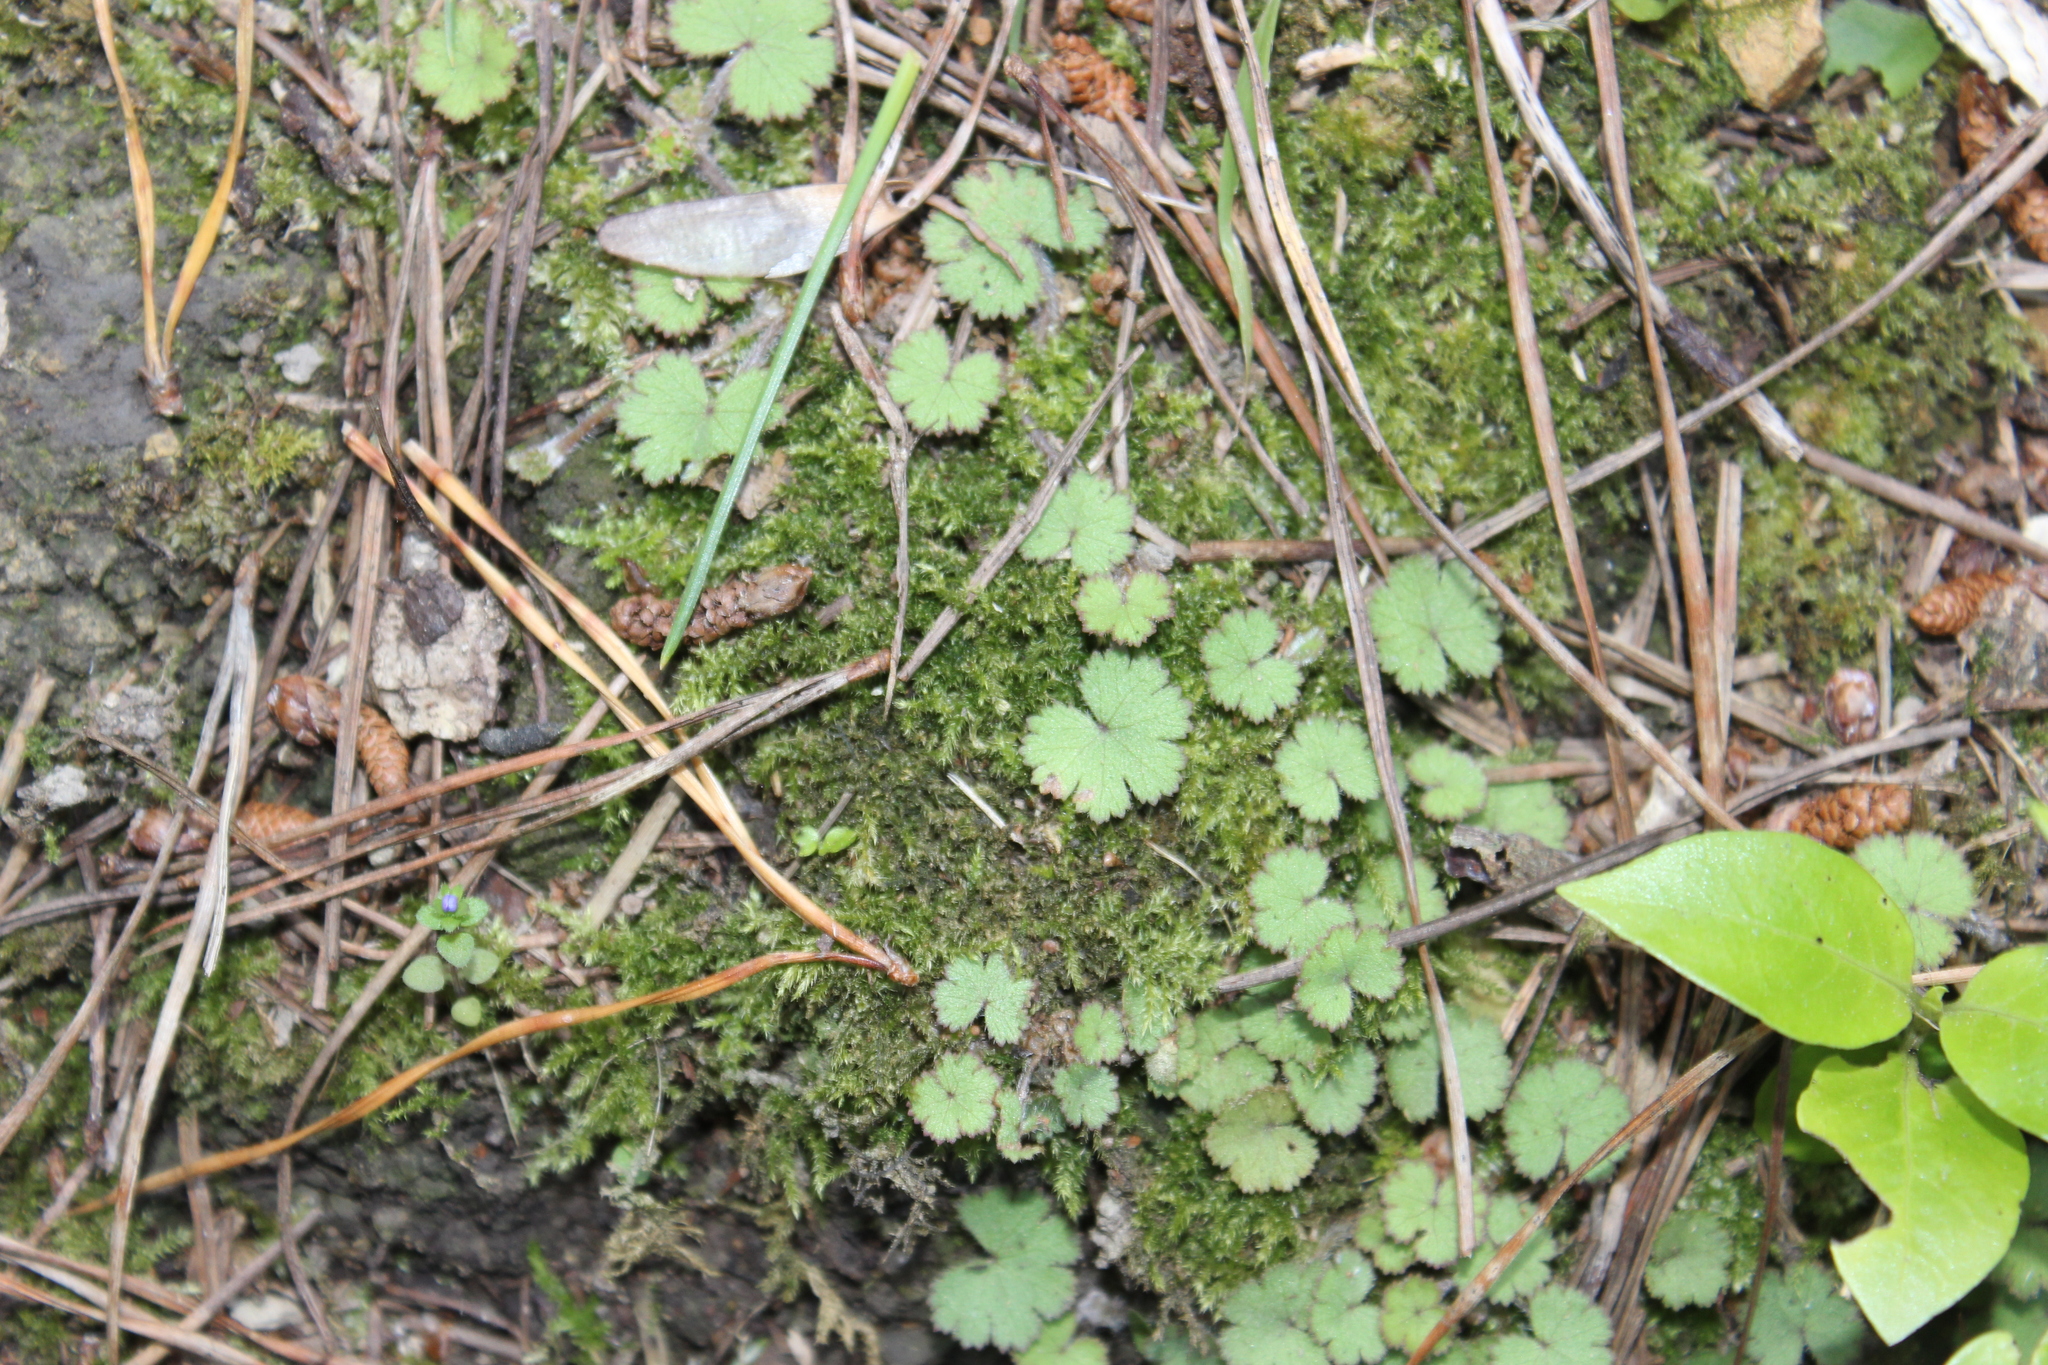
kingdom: Plantae
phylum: Tracheophyta
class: Magnoliopsida
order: Apiales
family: Araliaceae
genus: Hydrocotyle
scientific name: Hydrocotyle moschata
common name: Hairy pennywort
